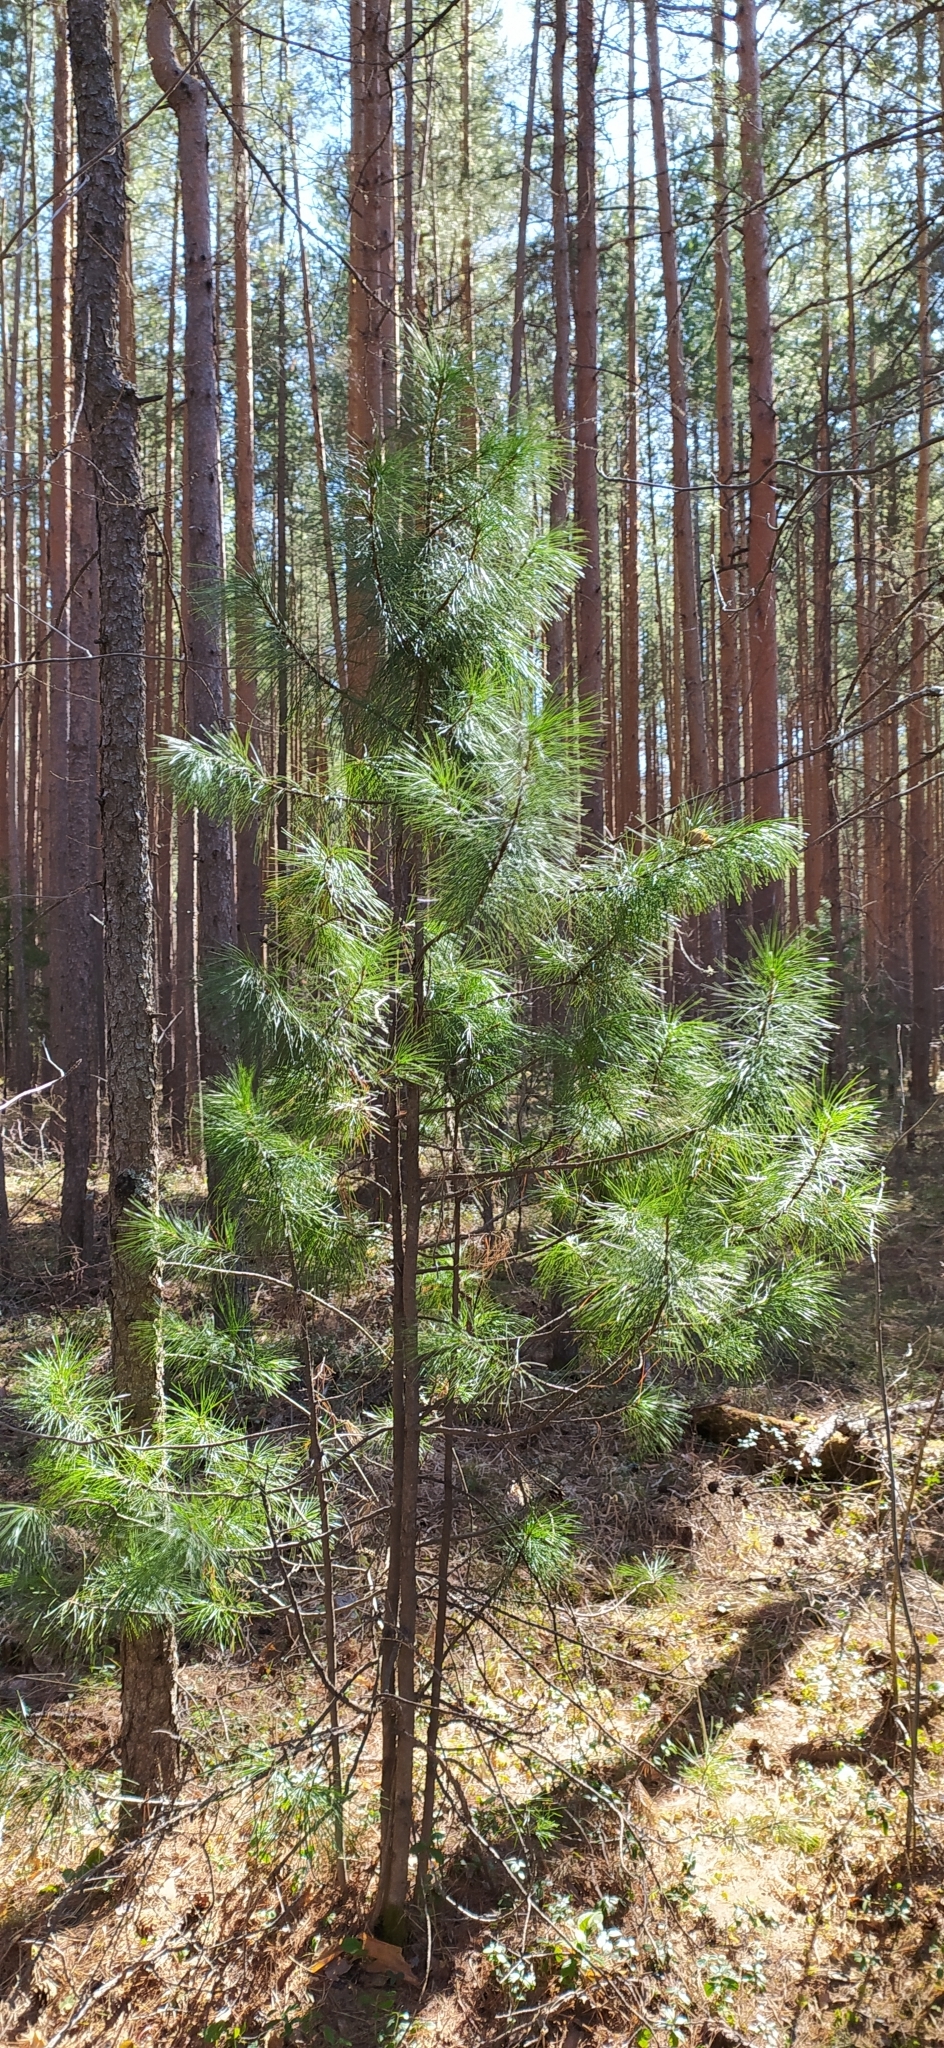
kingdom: Plantae
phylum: Tracheophyta
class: Pinopsida
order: Pinales
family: Pinaceae
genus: Pinus
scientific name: Pinus sibirica
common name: Siberian pine
